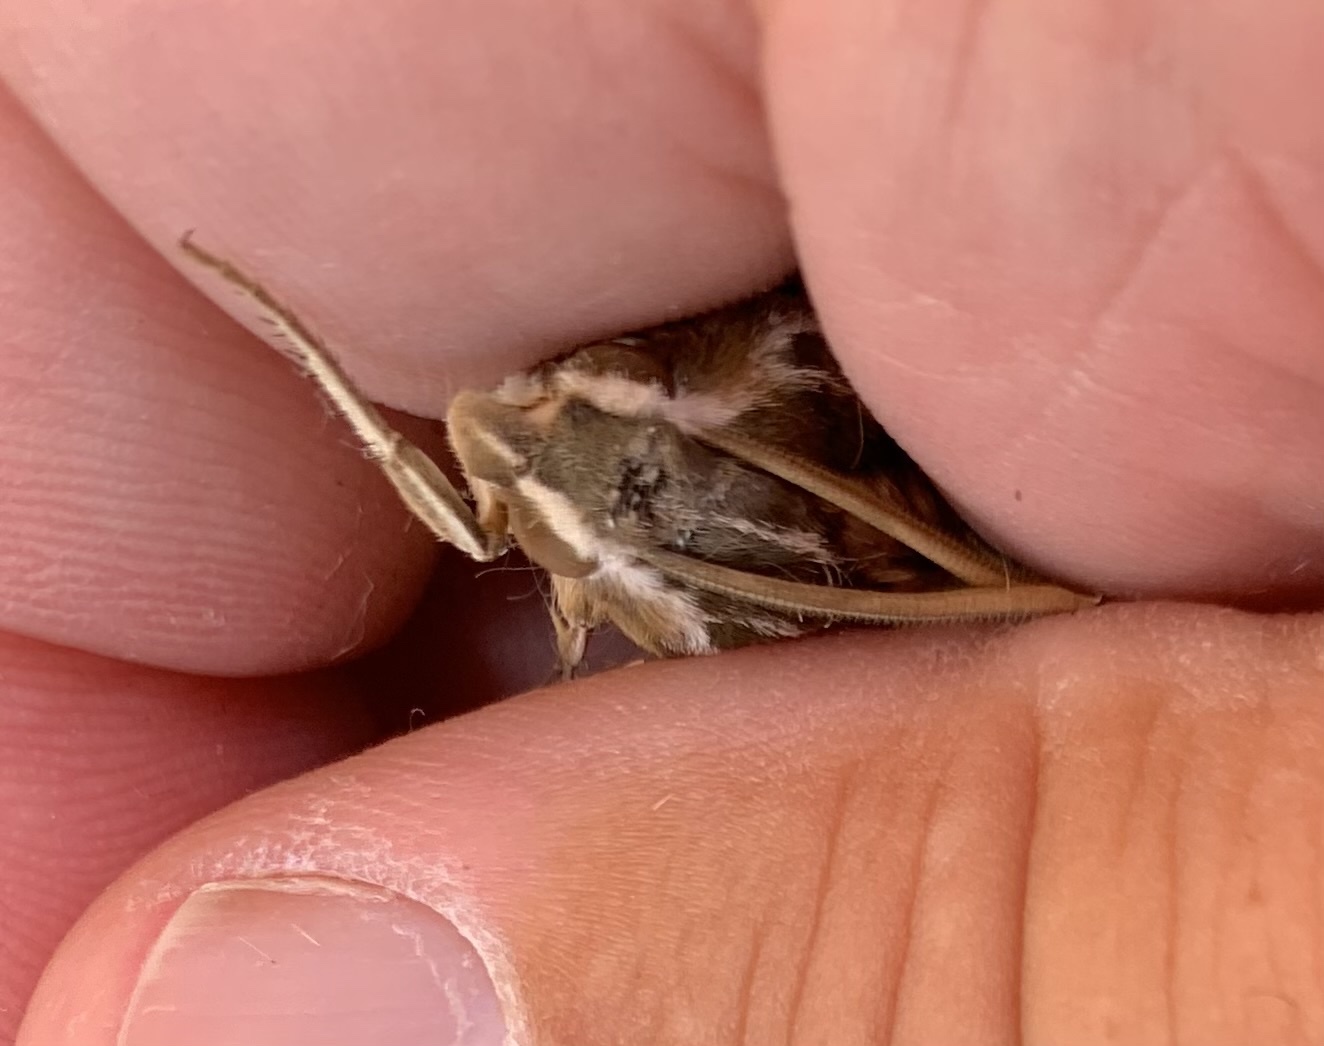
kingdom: Animalia
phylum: Arthropoda
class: Insecta
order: Lepidoptera
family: Sphingidae
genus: Hyles
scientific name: Hyles lineata
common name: White-lined sphinx
